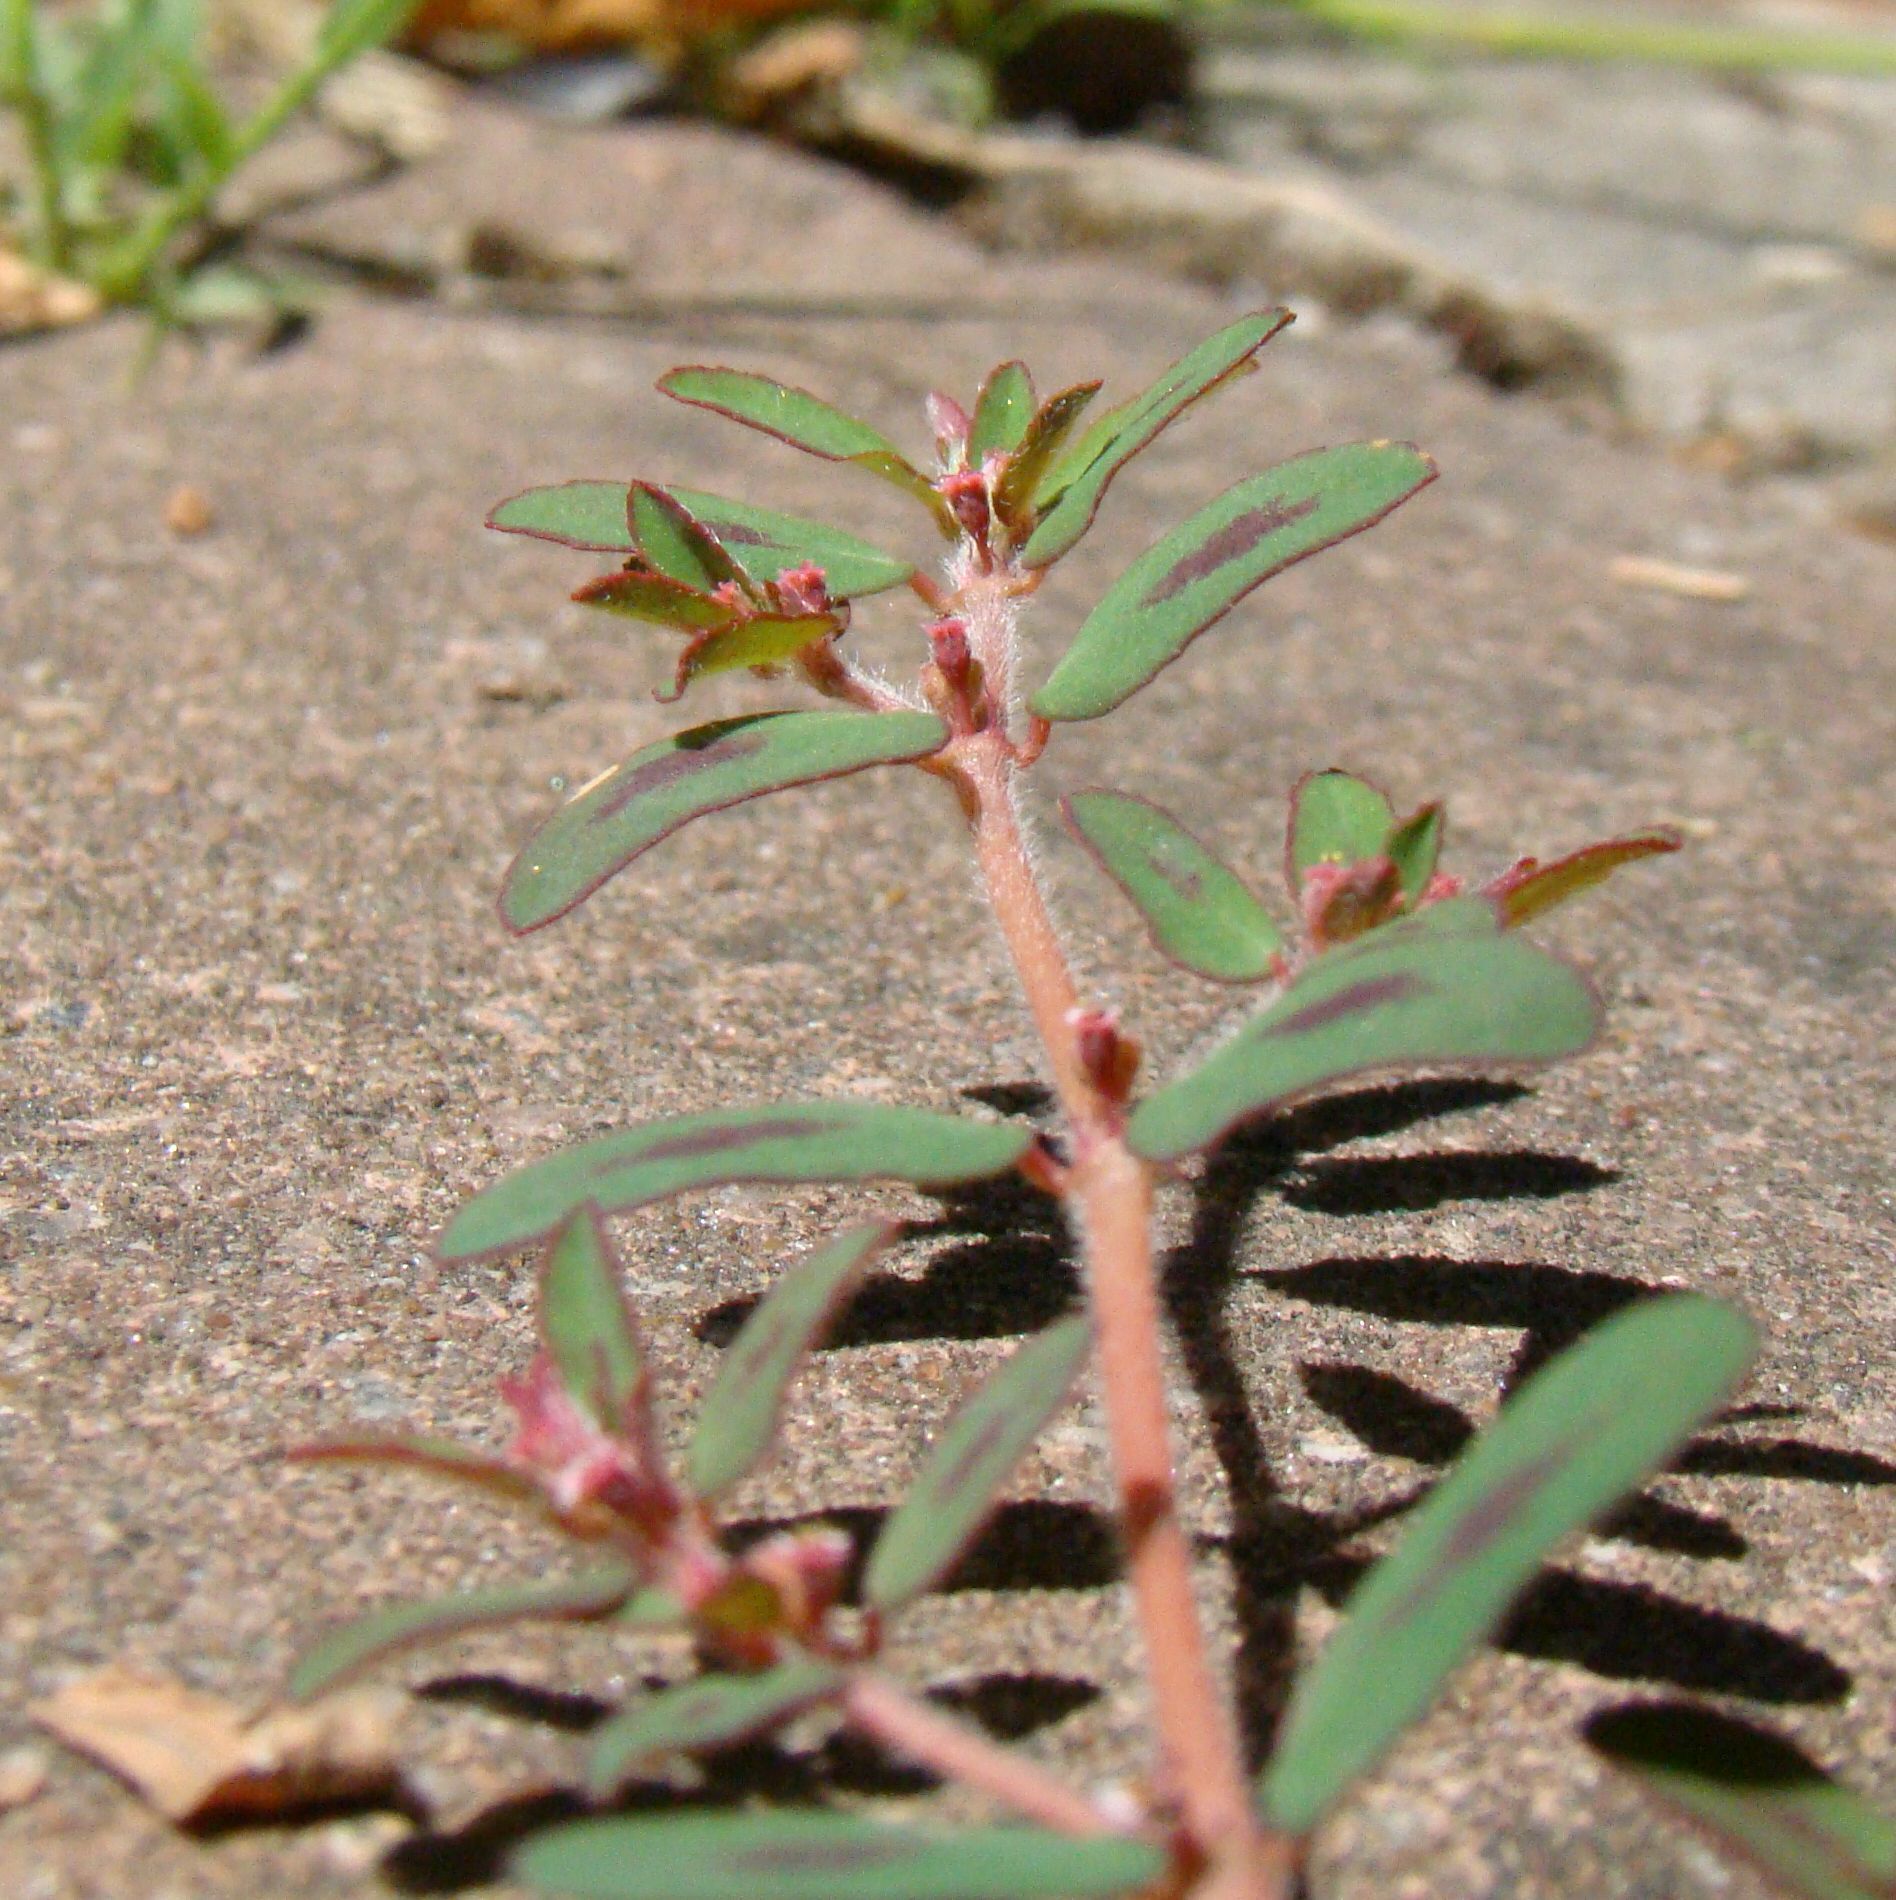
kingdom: Plantae
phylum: Tracheophyta
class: Magnoliopsida
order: Malpighiales
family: Euphorbiaceae
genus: Euphorbia
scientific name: Euphorbia maculata
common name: Spotted spurge
